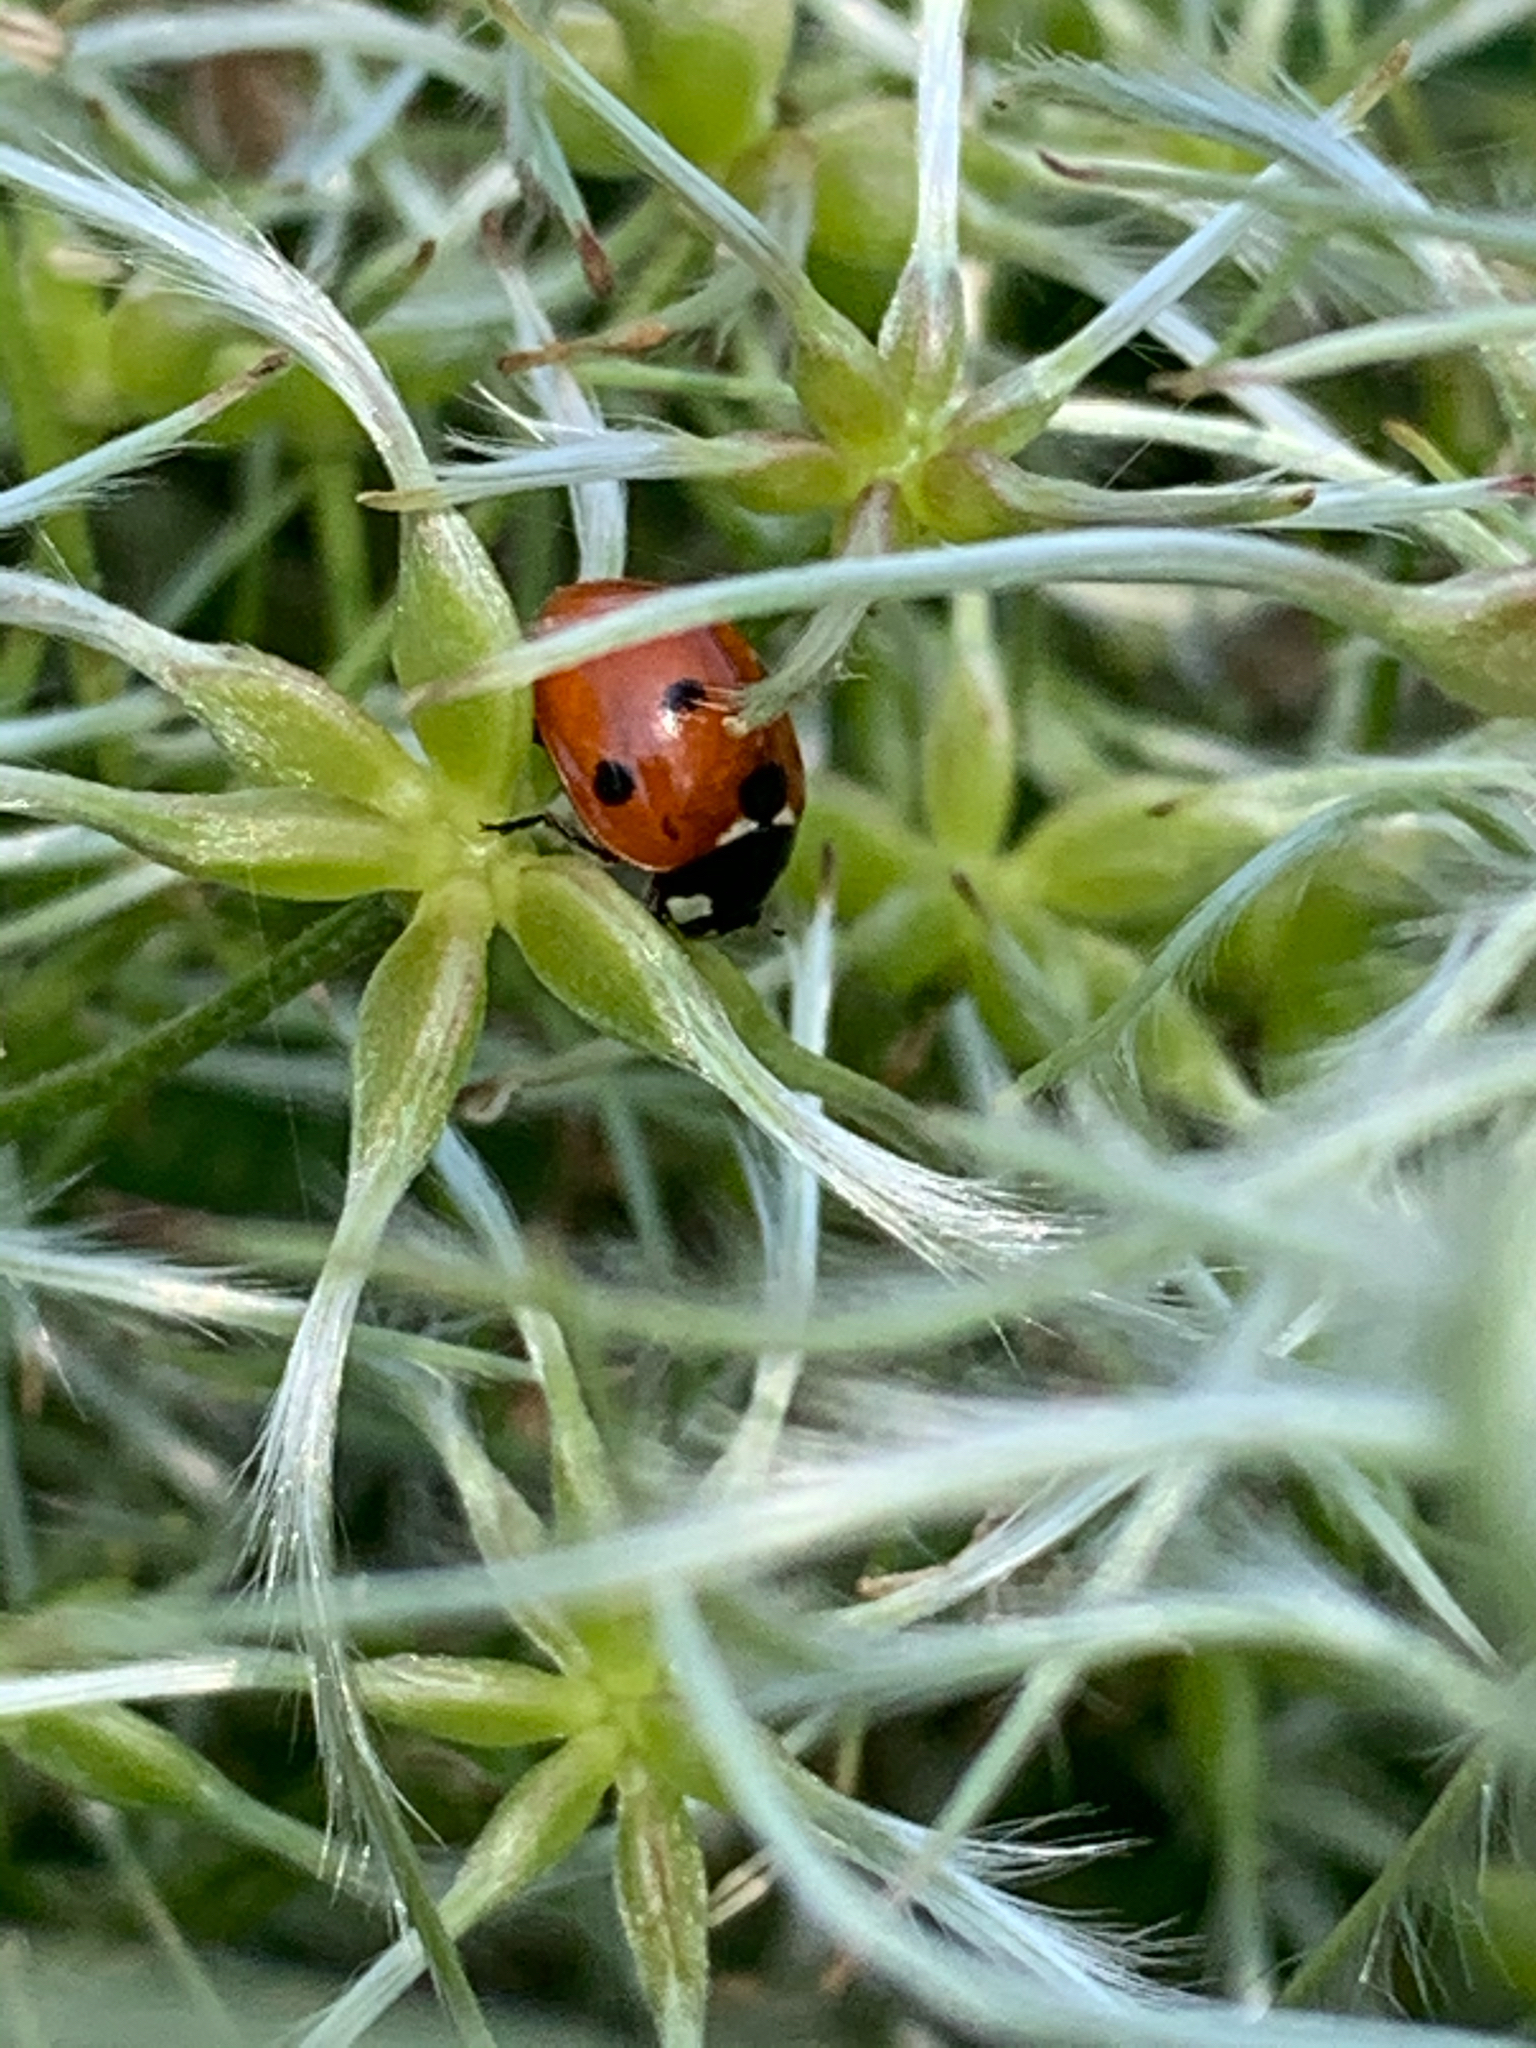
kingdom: Animalia
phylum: Arthropoda
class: Insecta
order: Coleoptera
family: Coccinellidae
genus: Coccinella
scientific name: Coccinella septempunctata
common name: Sevenspotted lady beetle
